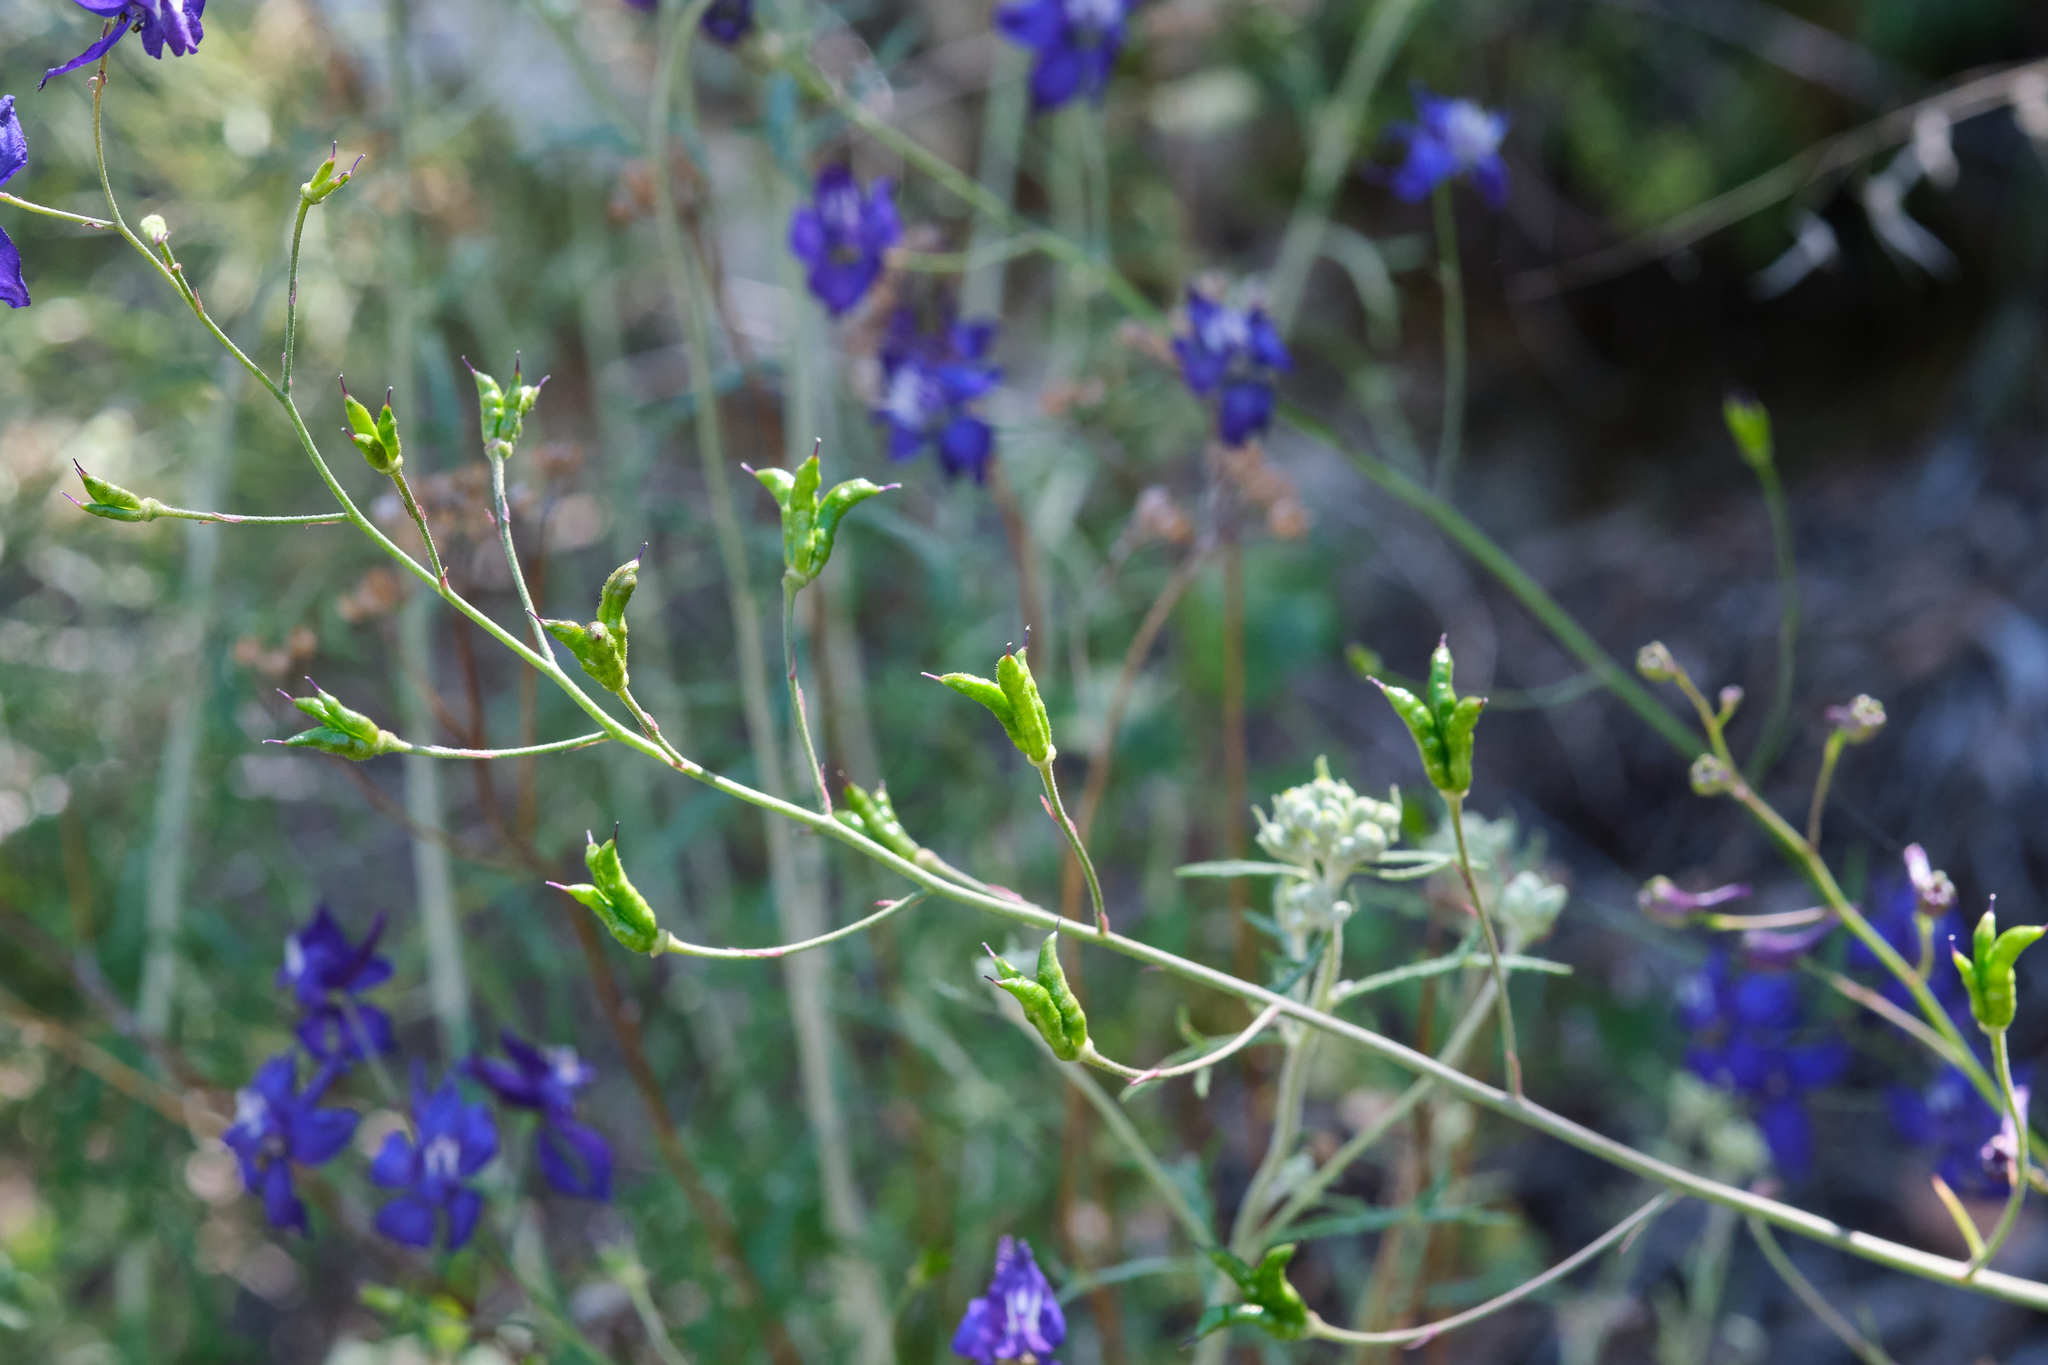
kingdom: Plantae
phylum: Tracheophyta
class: Magnoliopsida
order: Ranunculales
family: Ranunculaceae
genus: Delphinium
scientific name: Delphinium patens
